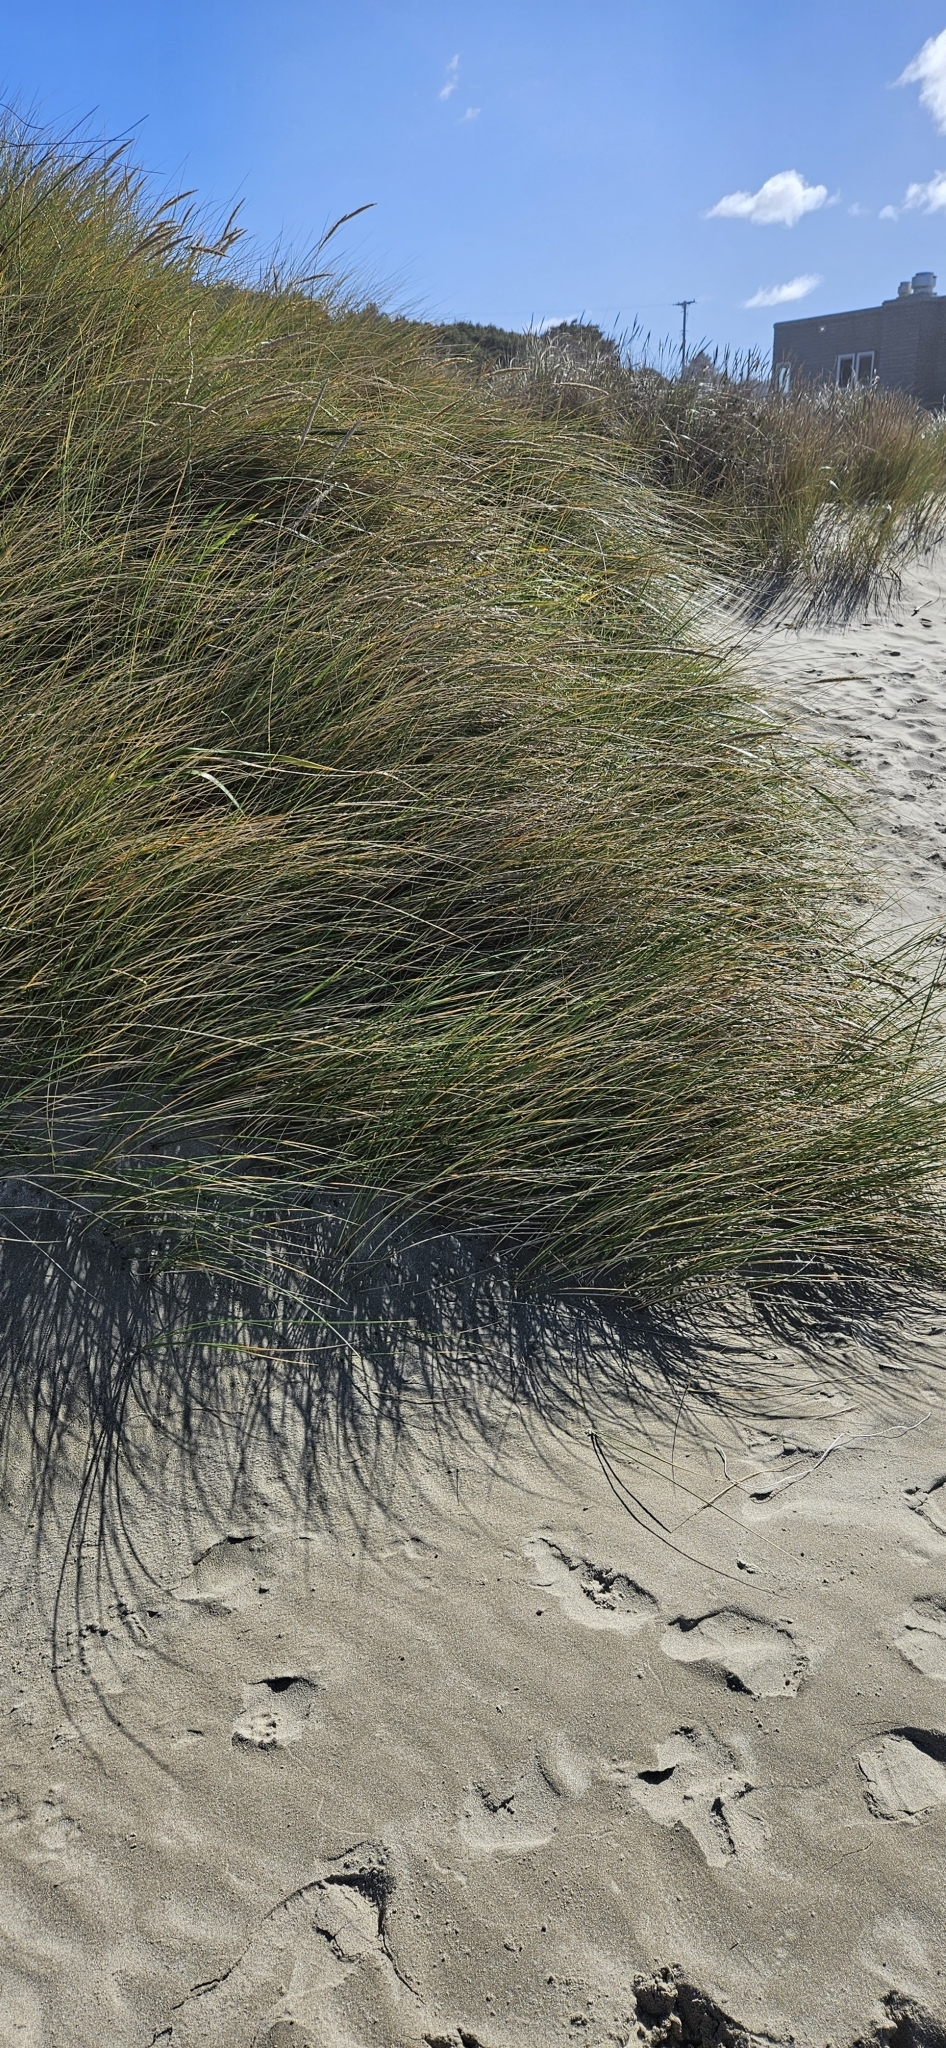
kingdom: Plantae
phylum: Tracheophyta
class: Liliopsida
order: Poales
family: Poaceae
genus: Calamagrostis
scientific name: Calamagrostis arenaria
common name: European beachgrass
